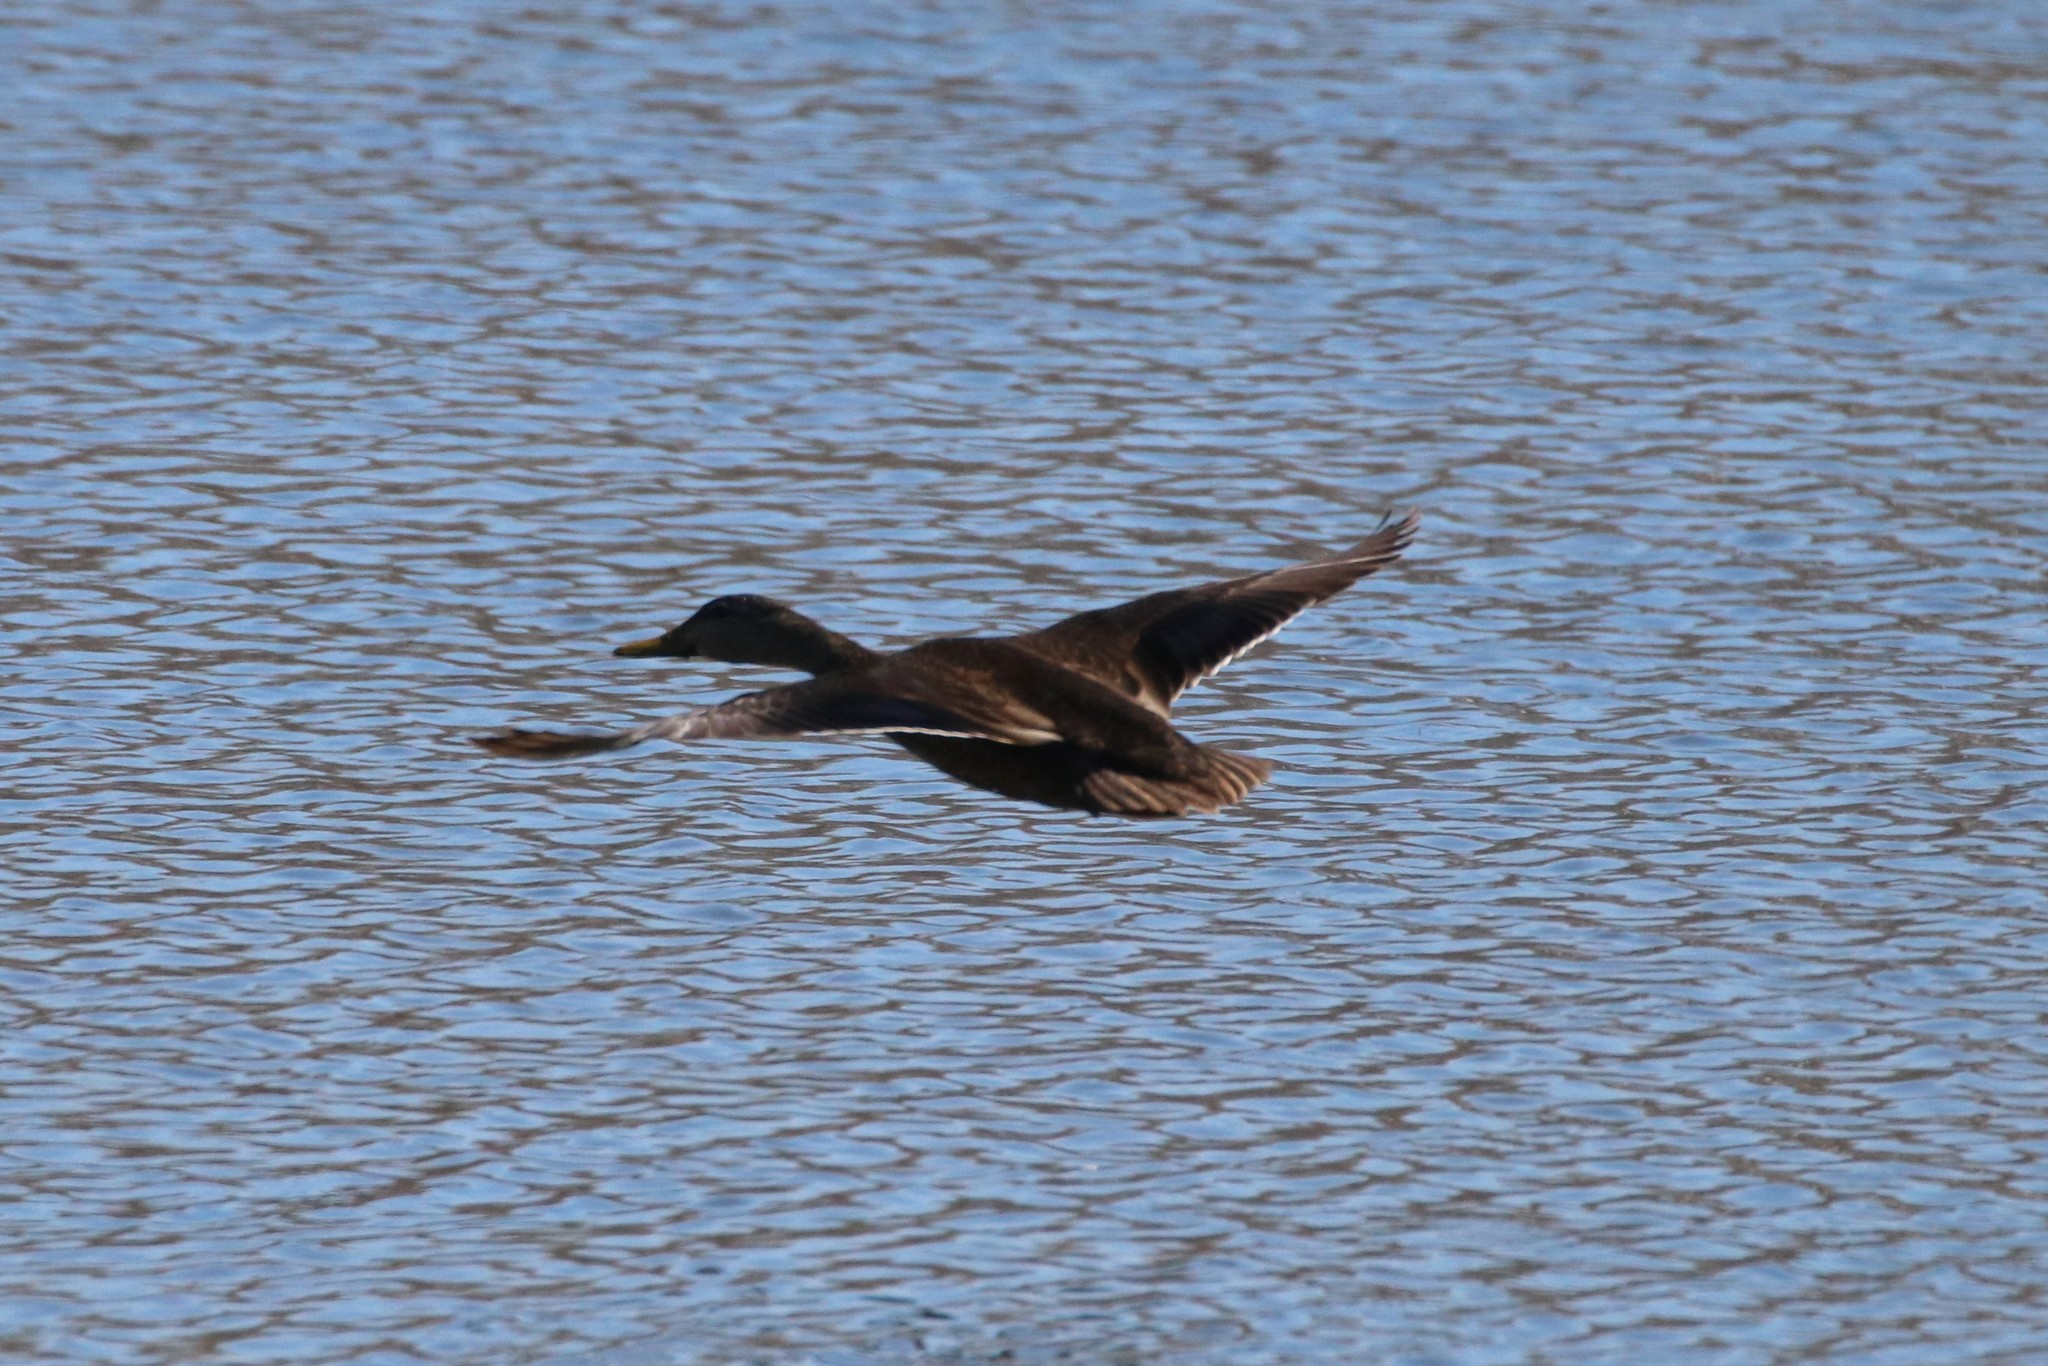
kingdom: Animalia
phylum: Chordata
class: Aves
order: Anseriformes
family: Anatidae
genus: Anas
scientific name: Anas rubripes
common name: American black duck
